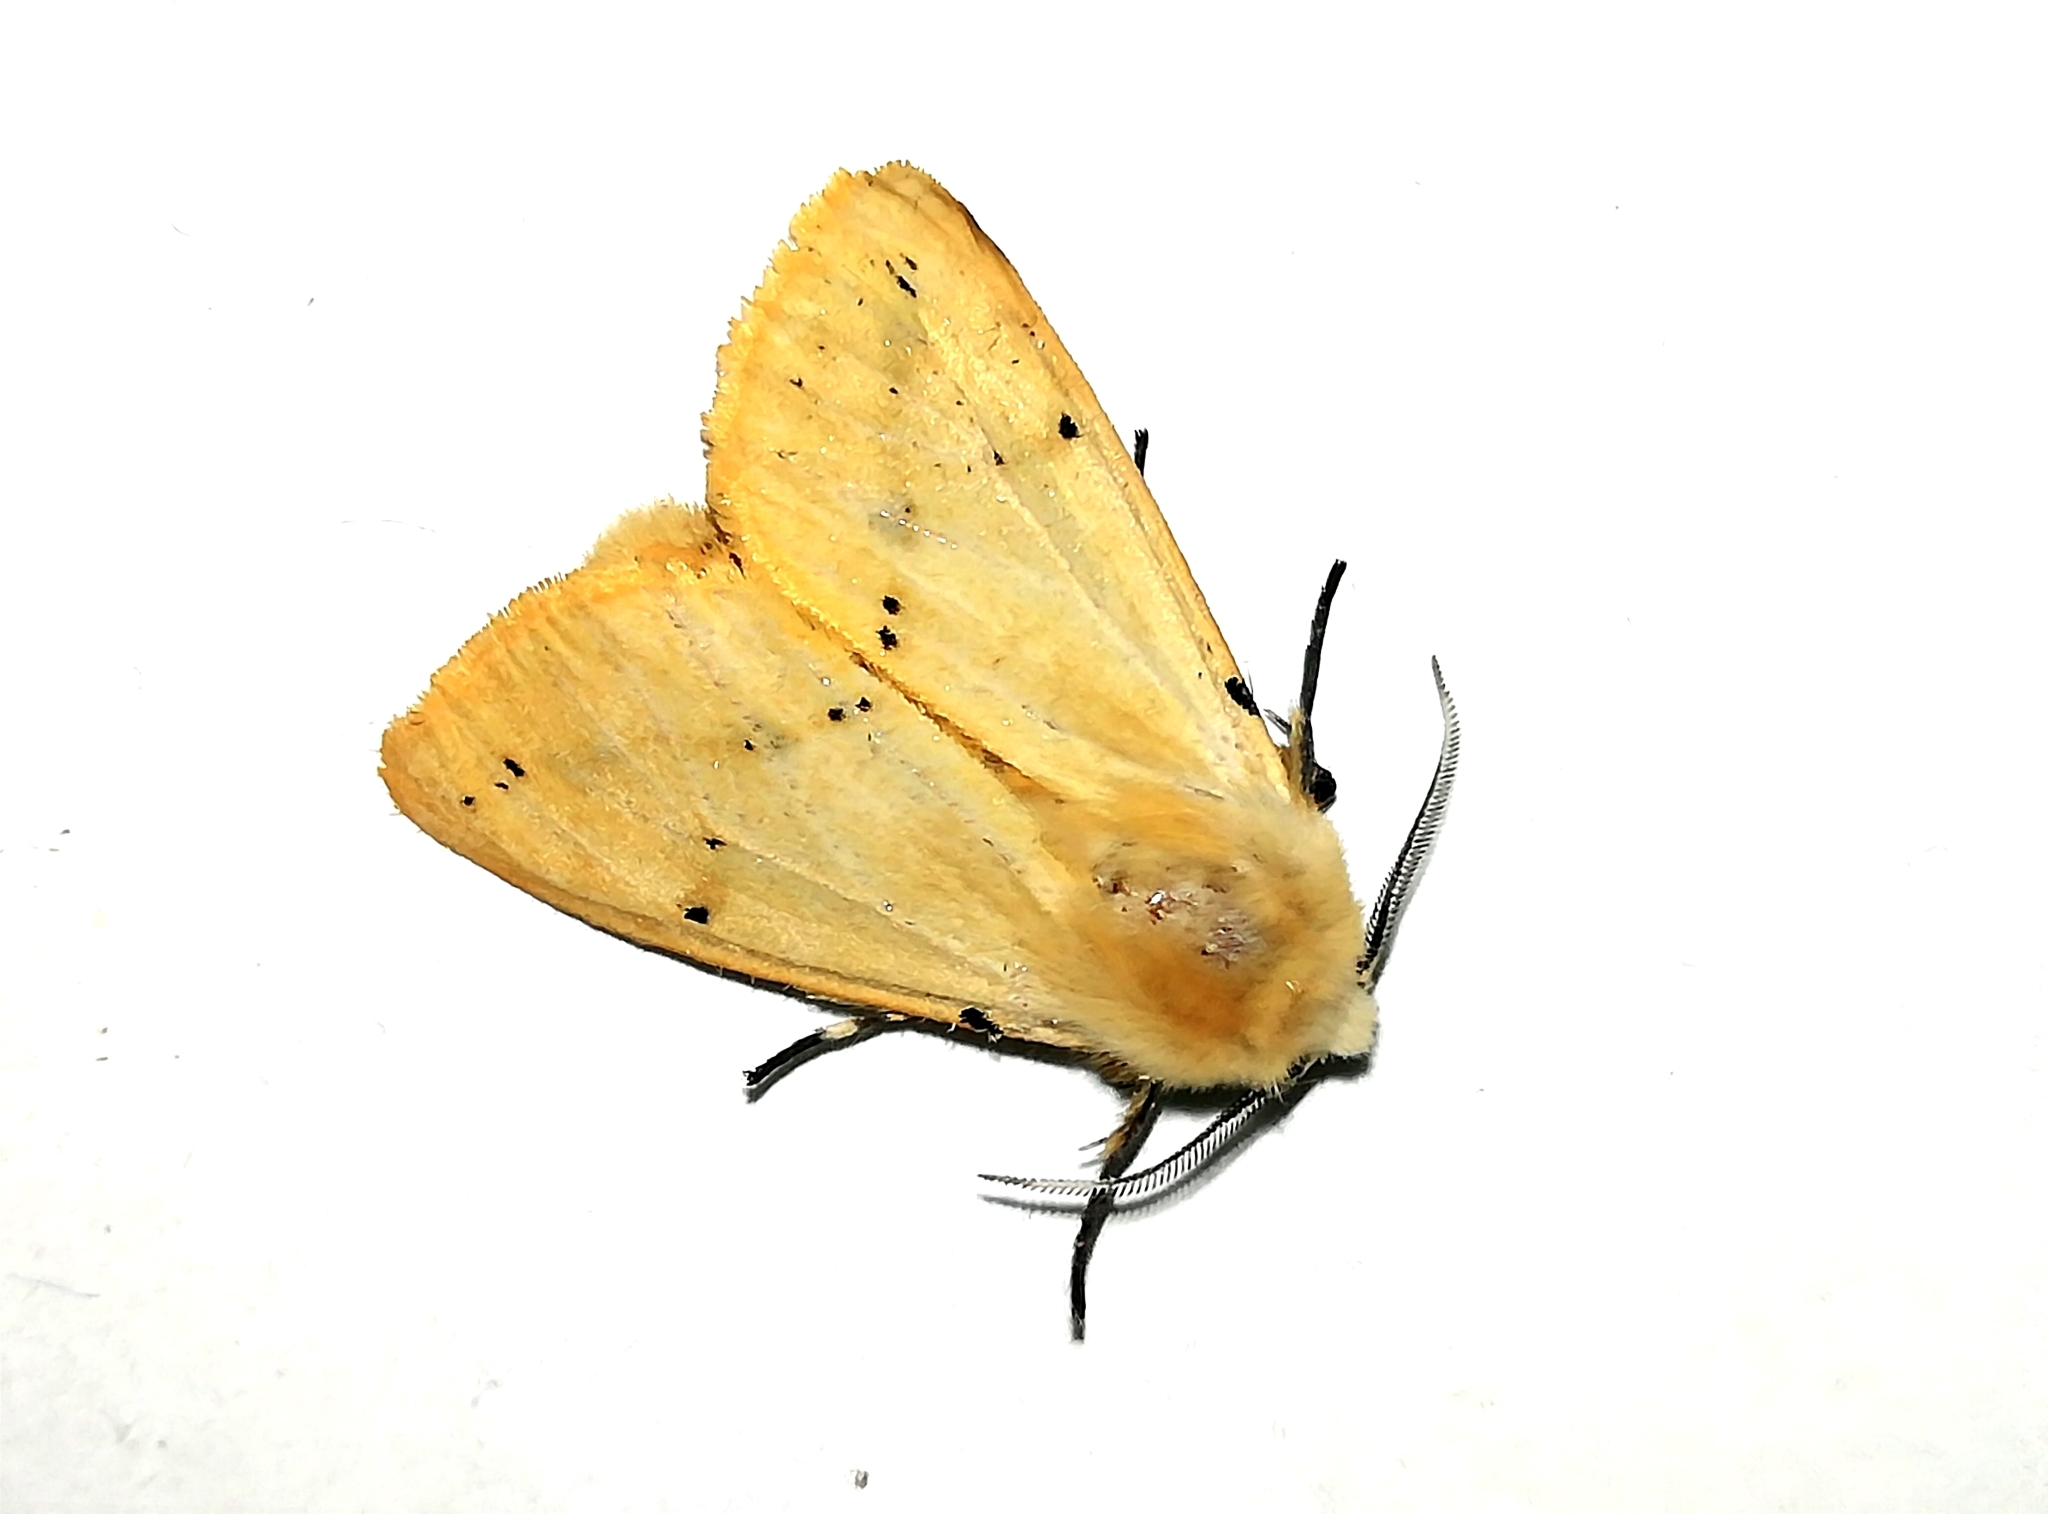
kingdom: Animalia
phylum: Arthropoda
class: Insecta
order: Lepidoptera
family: Erebidae
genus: Spilarctia
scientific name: Spilarctia lutea
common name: Buff ermine
